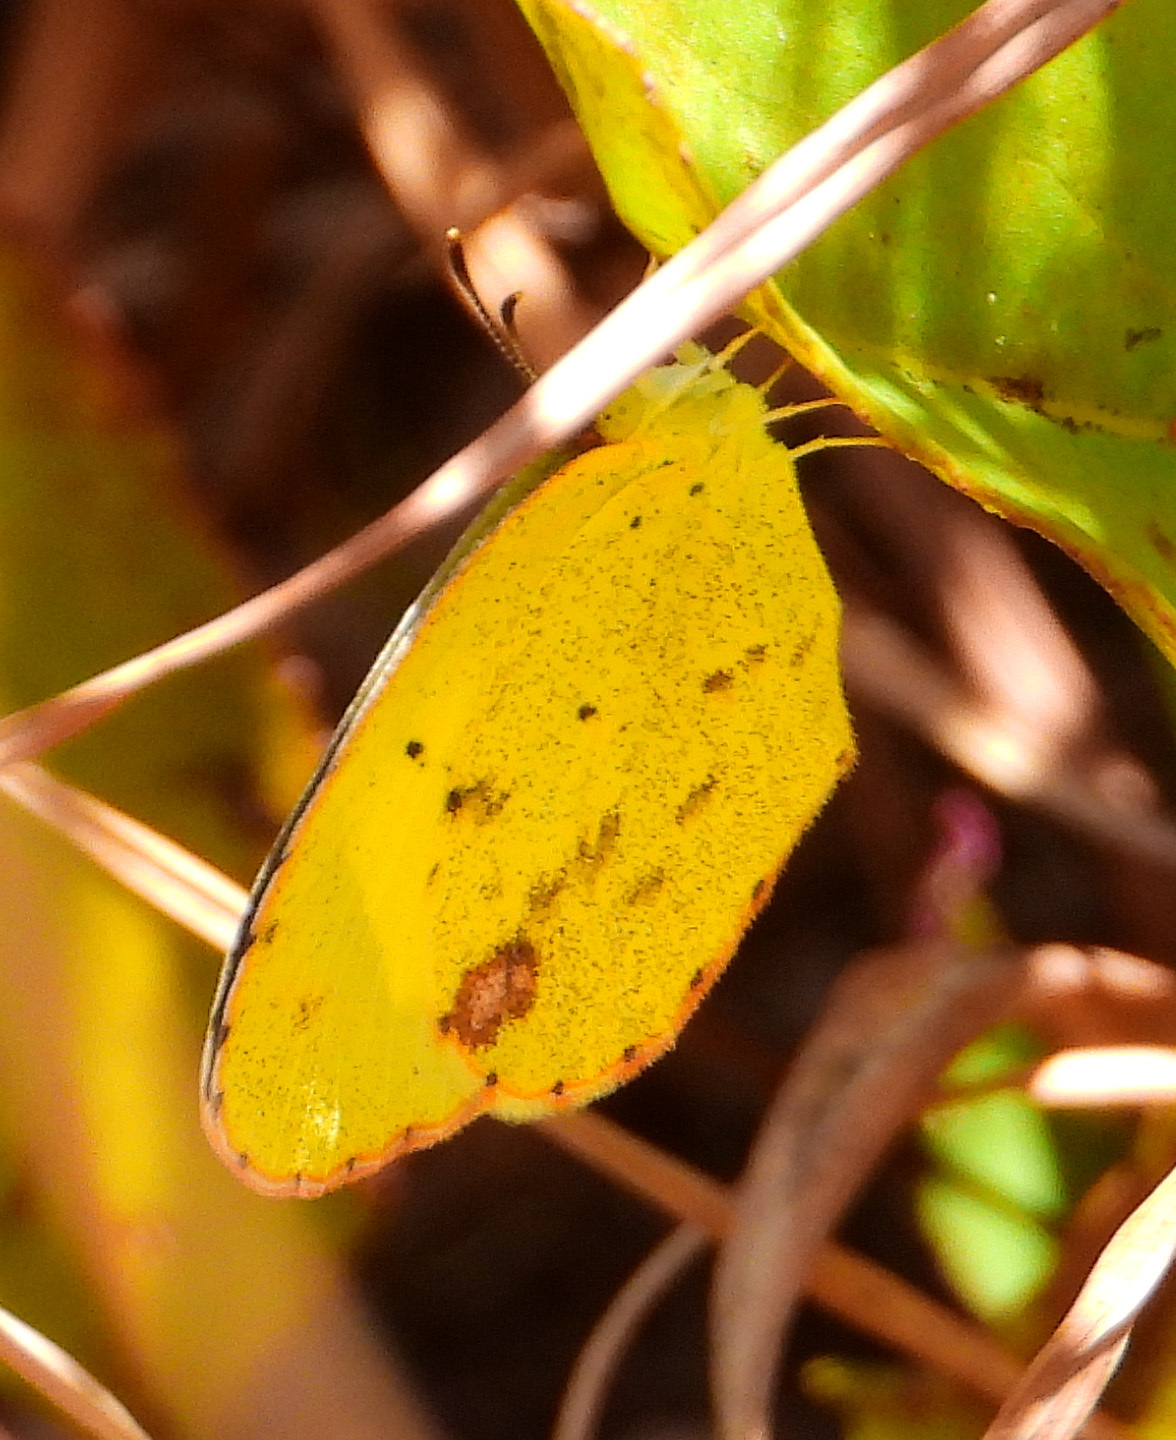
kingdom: Animalia
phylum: Arthropoda
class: Insecta
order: Lepidoptera
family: Pieridae
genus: Pyrisitia
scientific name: Pyrisitia lisa
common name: Little yellow
